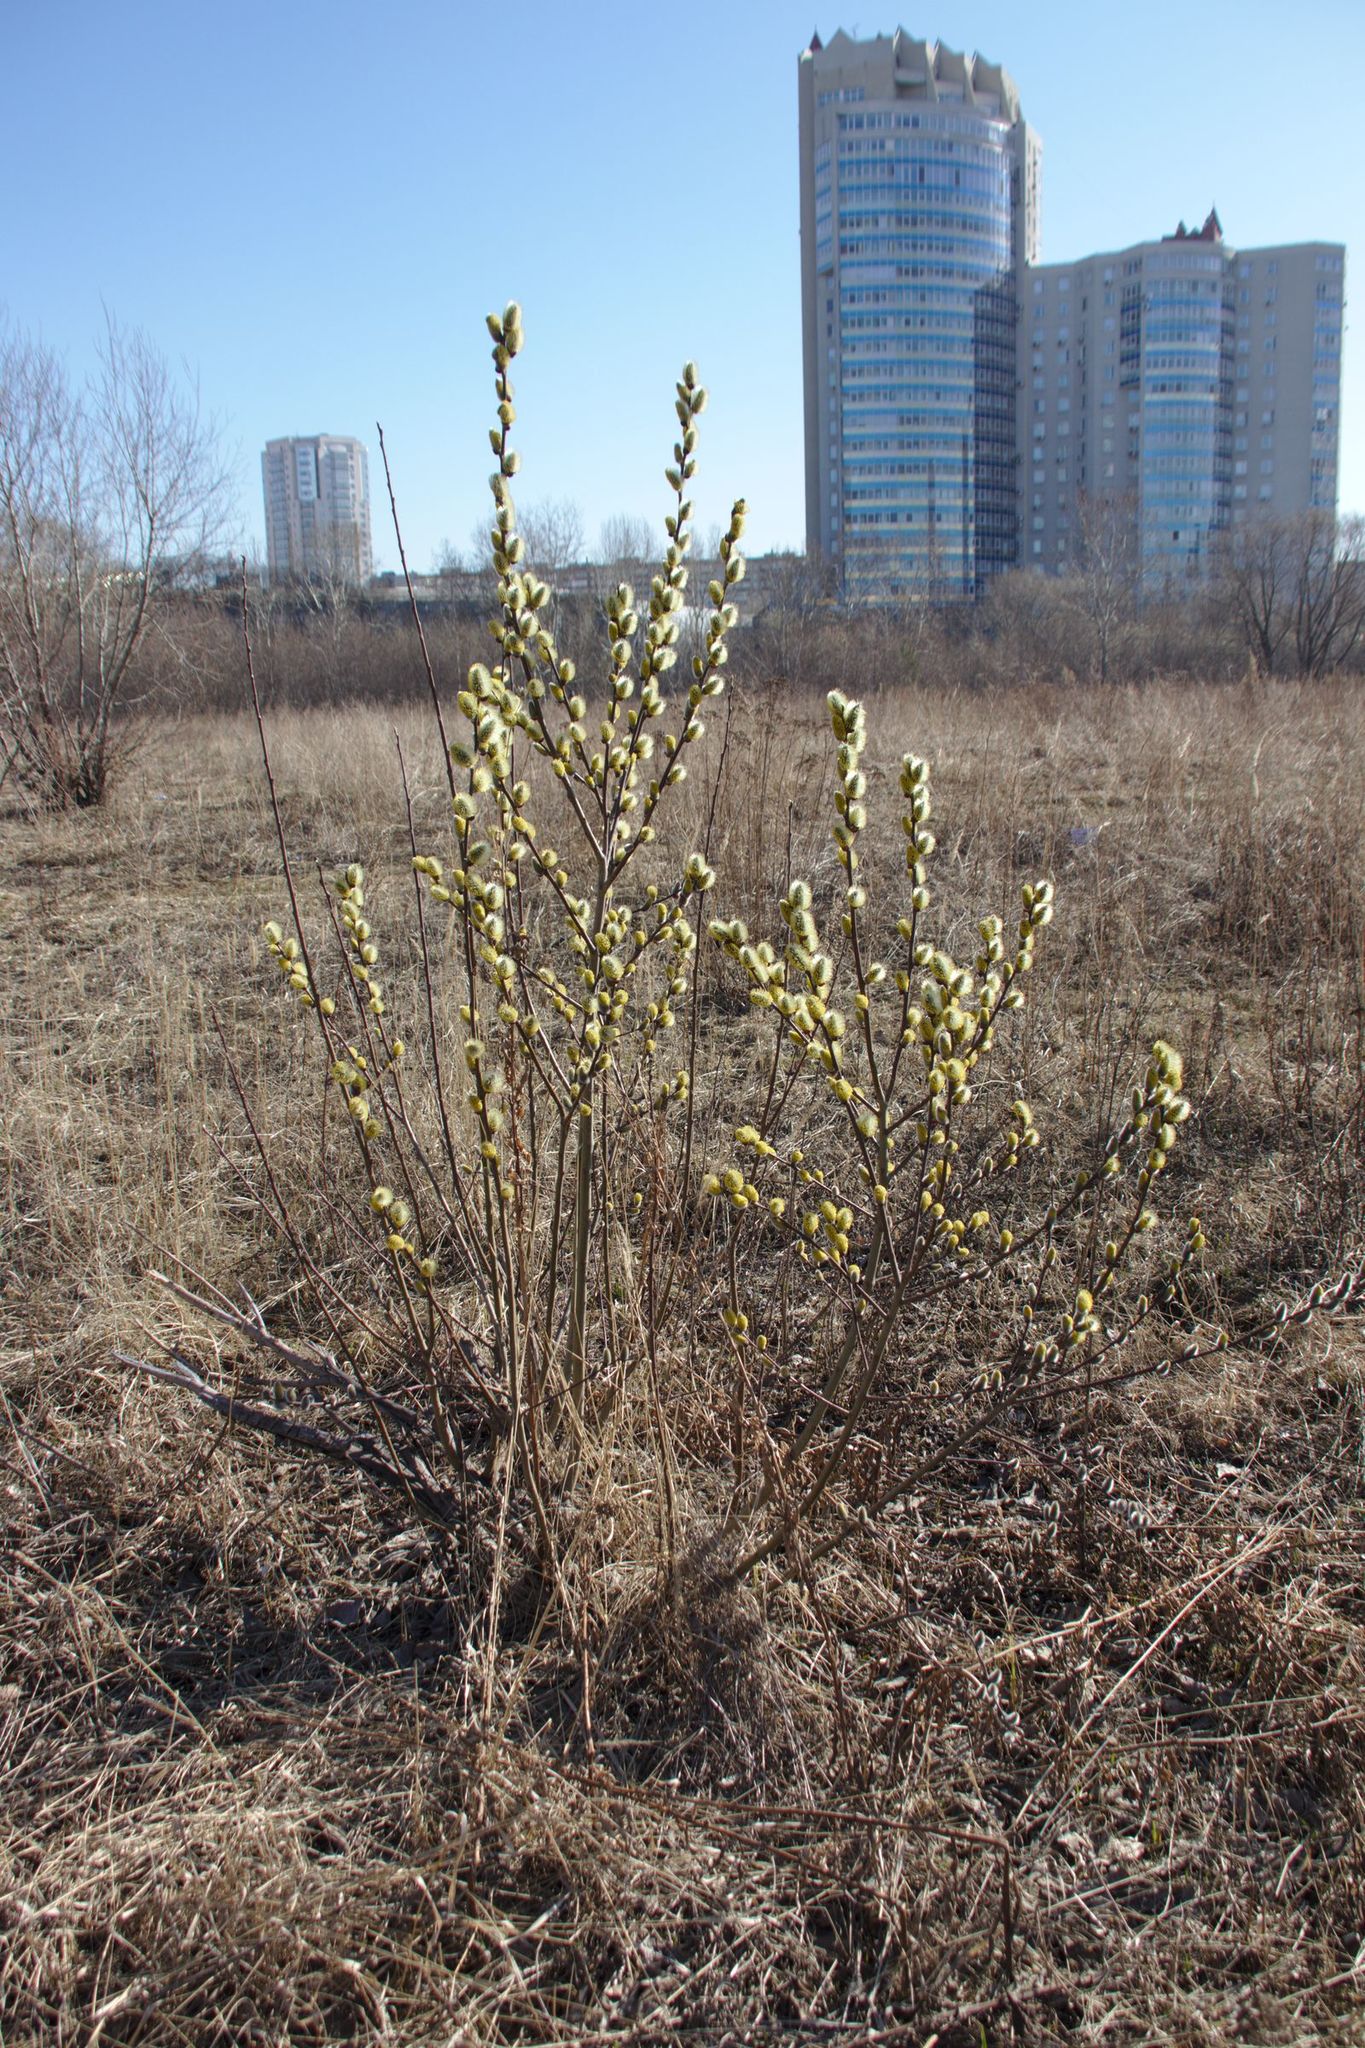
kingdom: Plantae
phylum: Tracheophyta
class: Magnoliopsida
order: Malpighiales
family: Salicaceae
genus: Salix
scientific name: Salix caprea
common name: Goat willow
